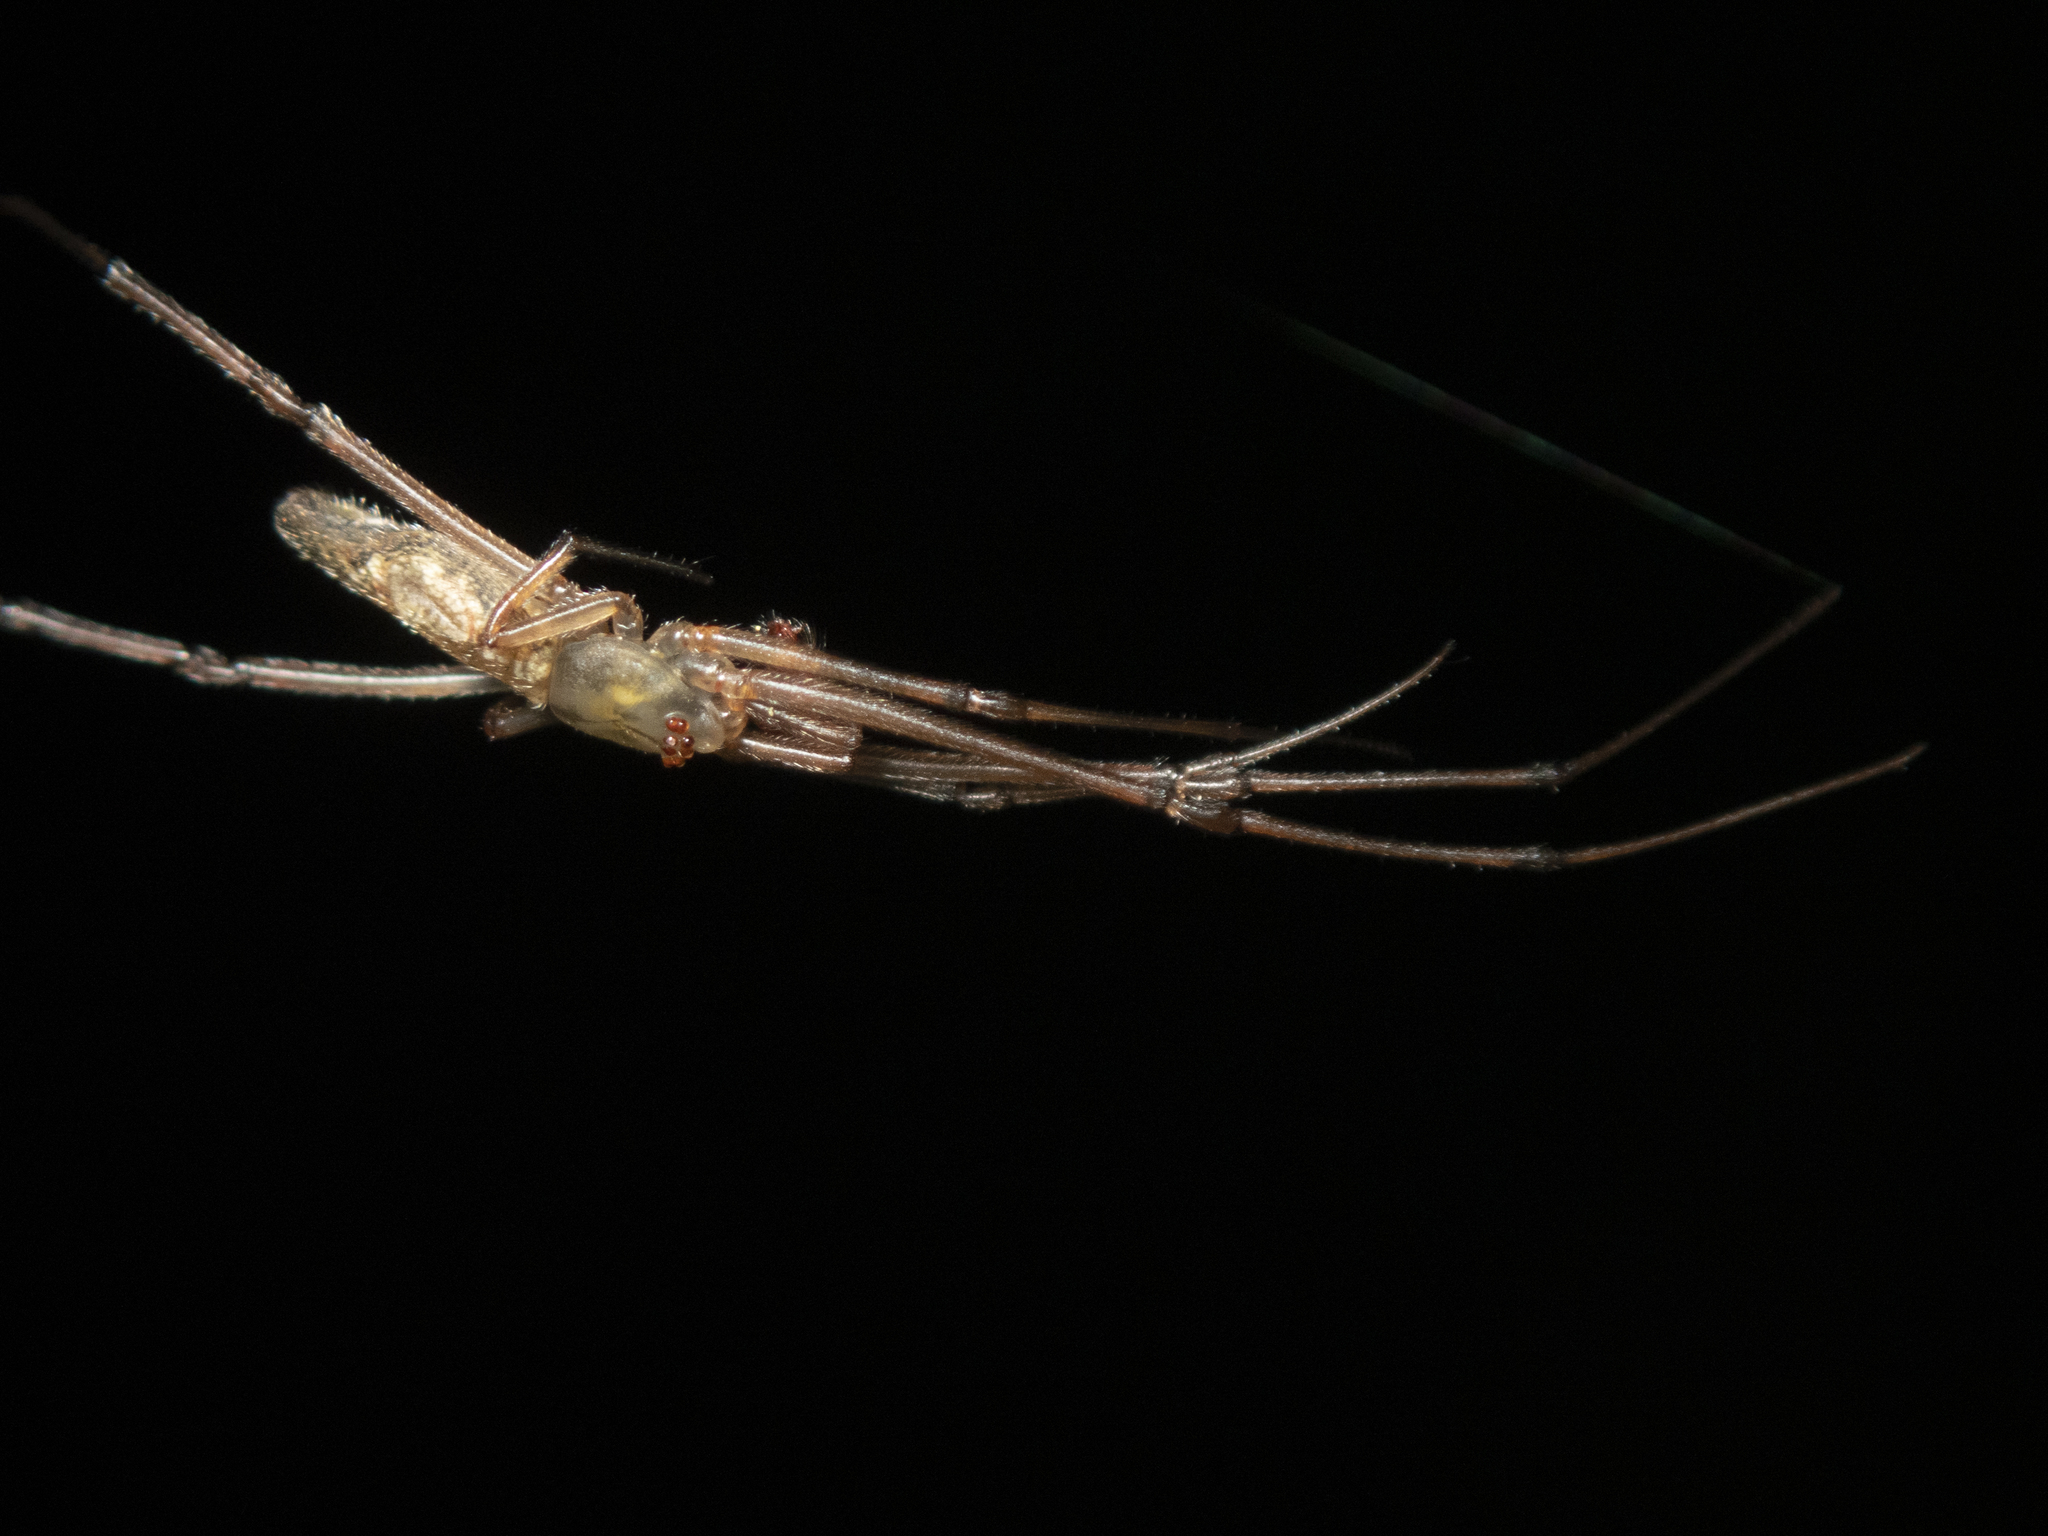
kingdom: Animalia
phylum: Arthropoda
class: Arachnida
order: Araneae
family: Theridiidae
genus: Moneta
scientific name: Moneta mirabilis
